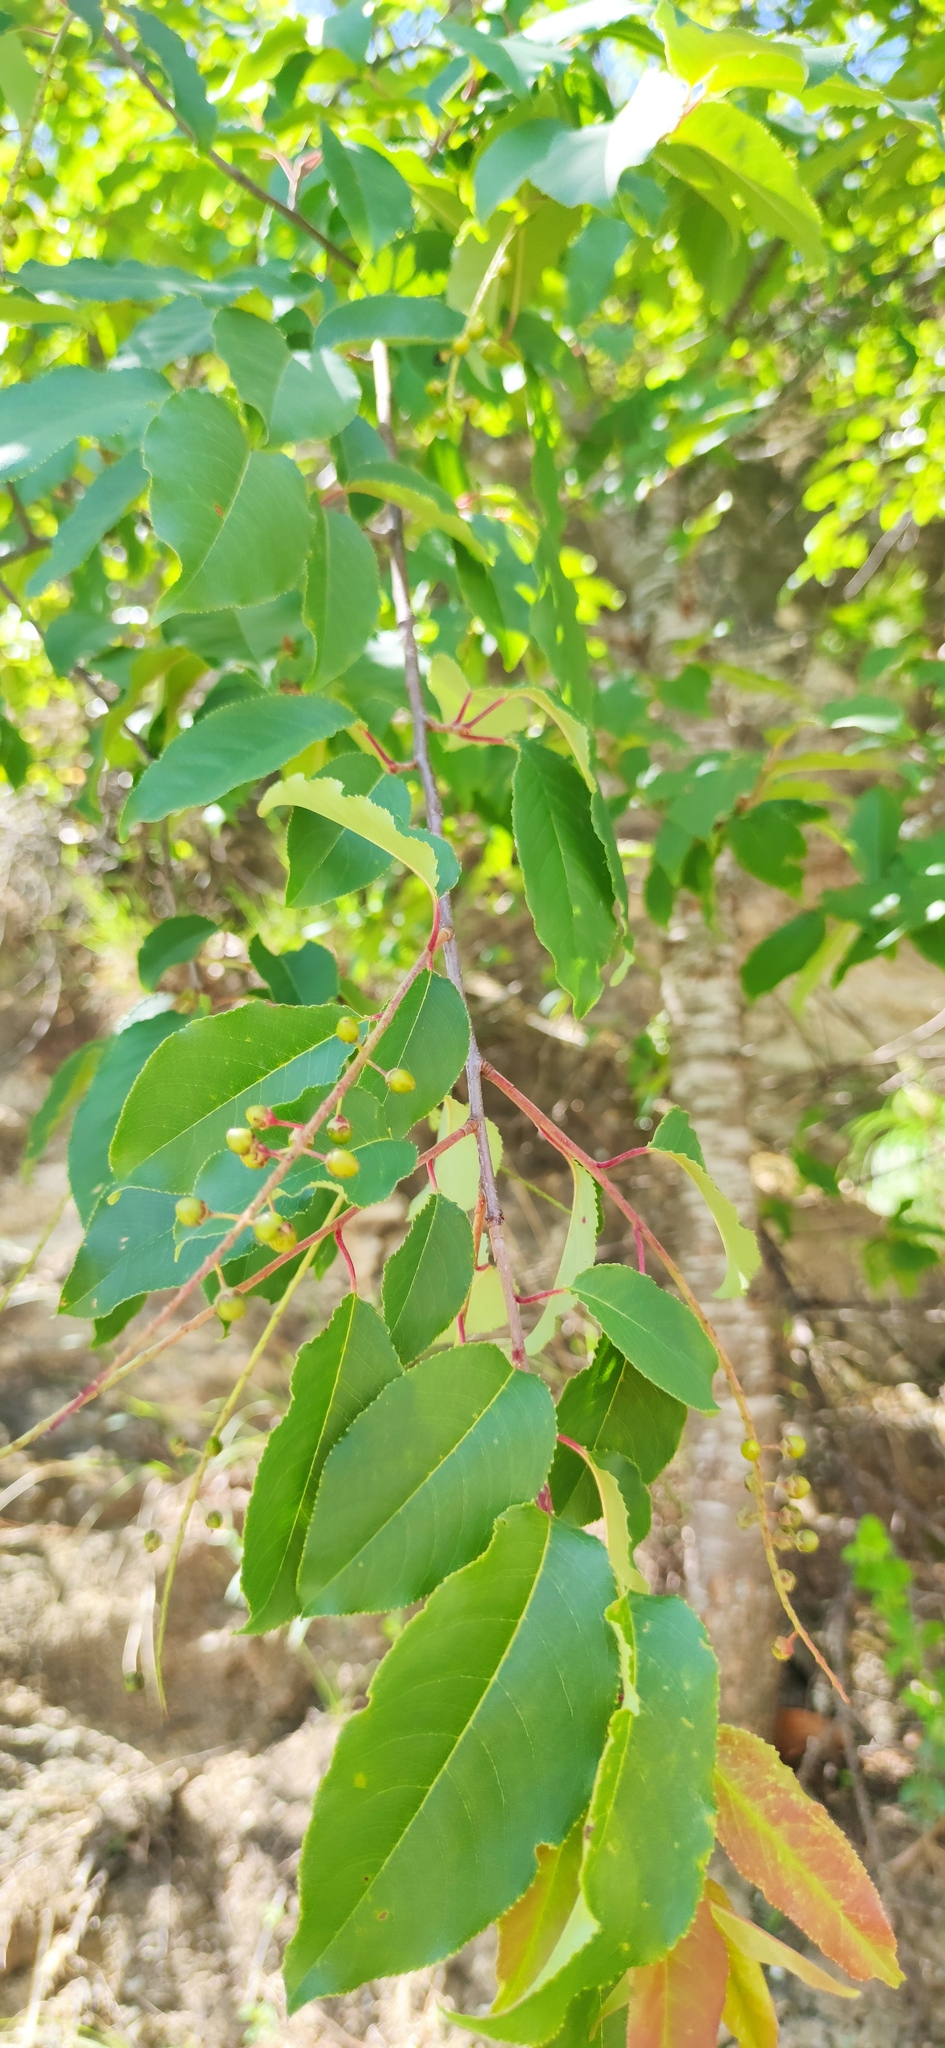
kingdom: Plantae
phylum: Tracheophyta
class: Magnoliopsida
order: Rosales
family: Rosaceae
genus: Prunus
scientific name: Prunus serotina
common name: Black cherry
